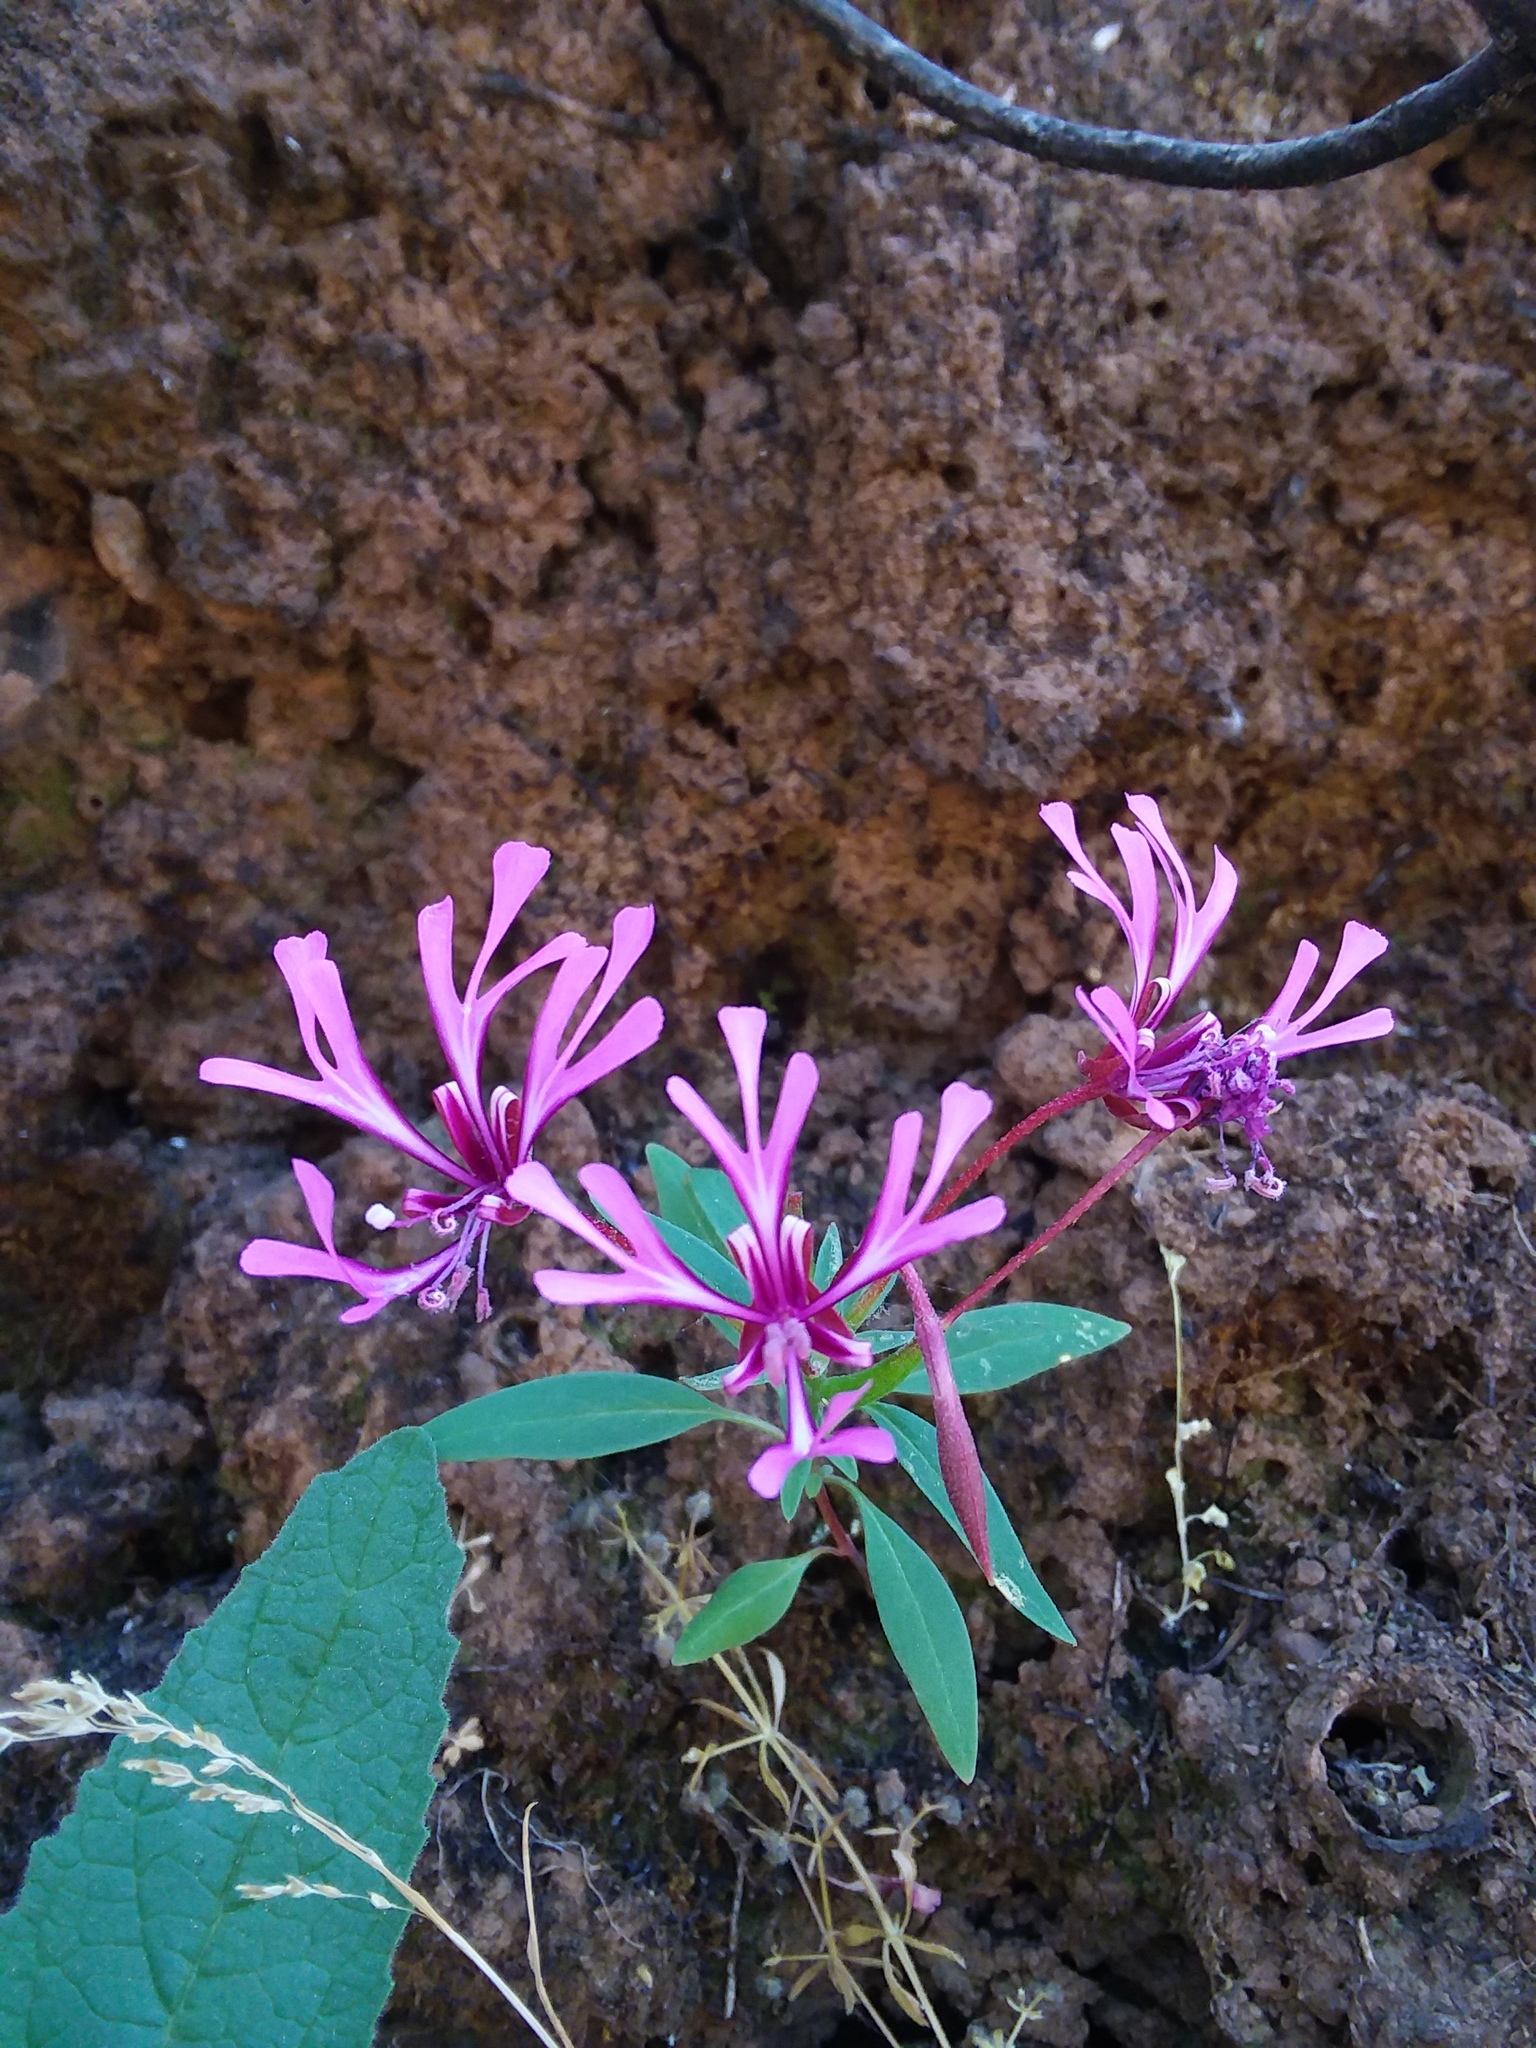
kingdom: Plantae
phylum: Tracheophyta
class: Magnoliopsida
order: Myrtales
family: Onagraceae
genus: Clarkia
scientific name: Clarkia concinna
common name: Red-ribbons
